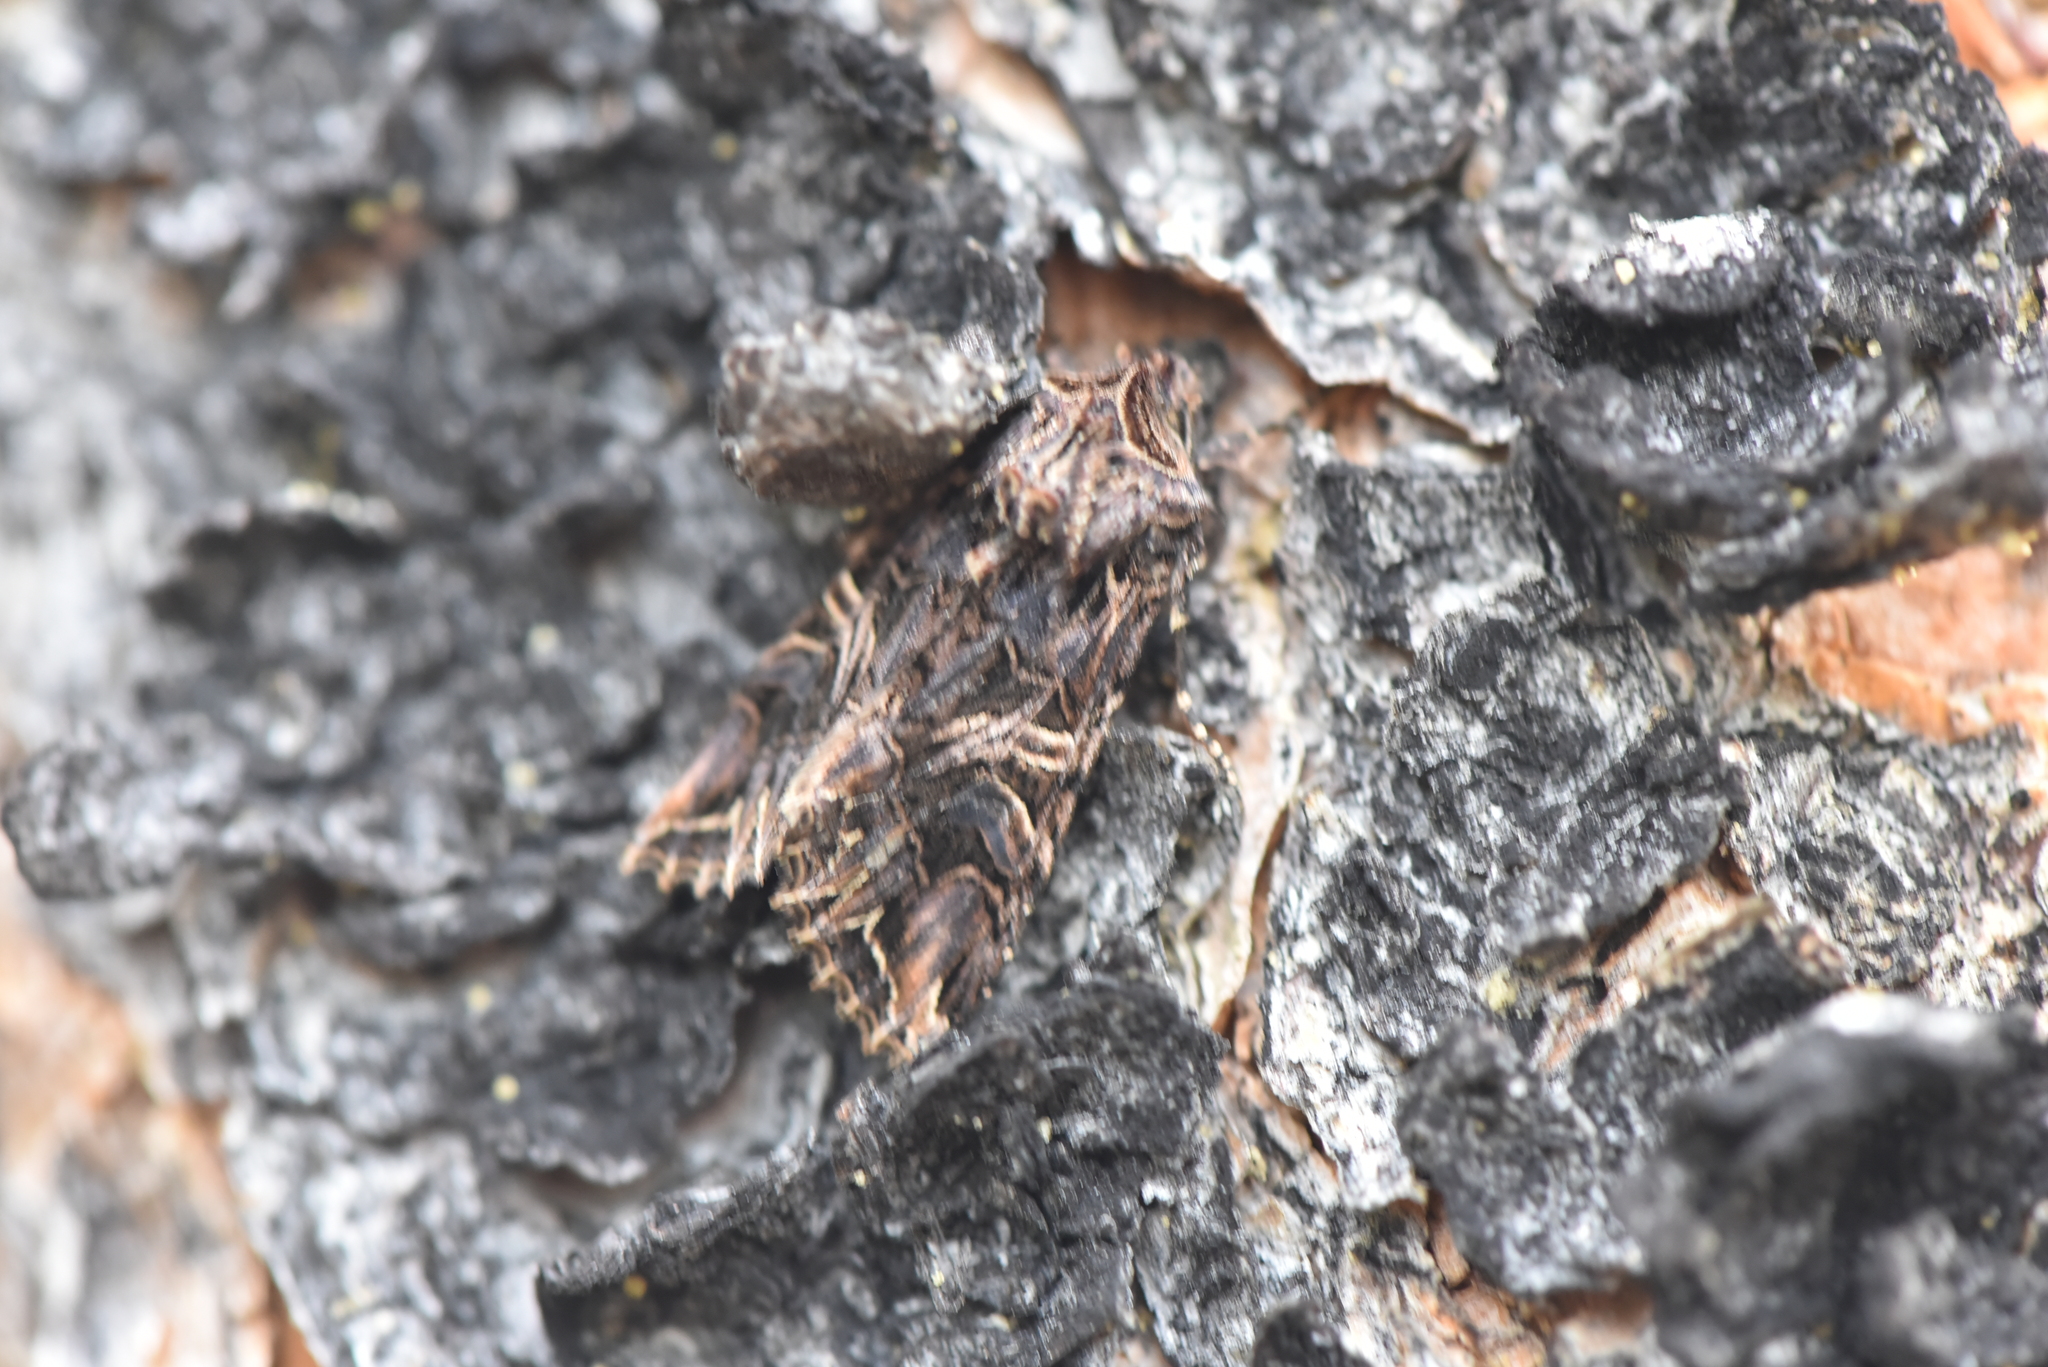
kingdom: Animalia
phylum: Arthropoda
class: Insecta
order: Lepidoptera
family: Noctuidae
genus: Anarta
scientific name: Anarta farnhami
